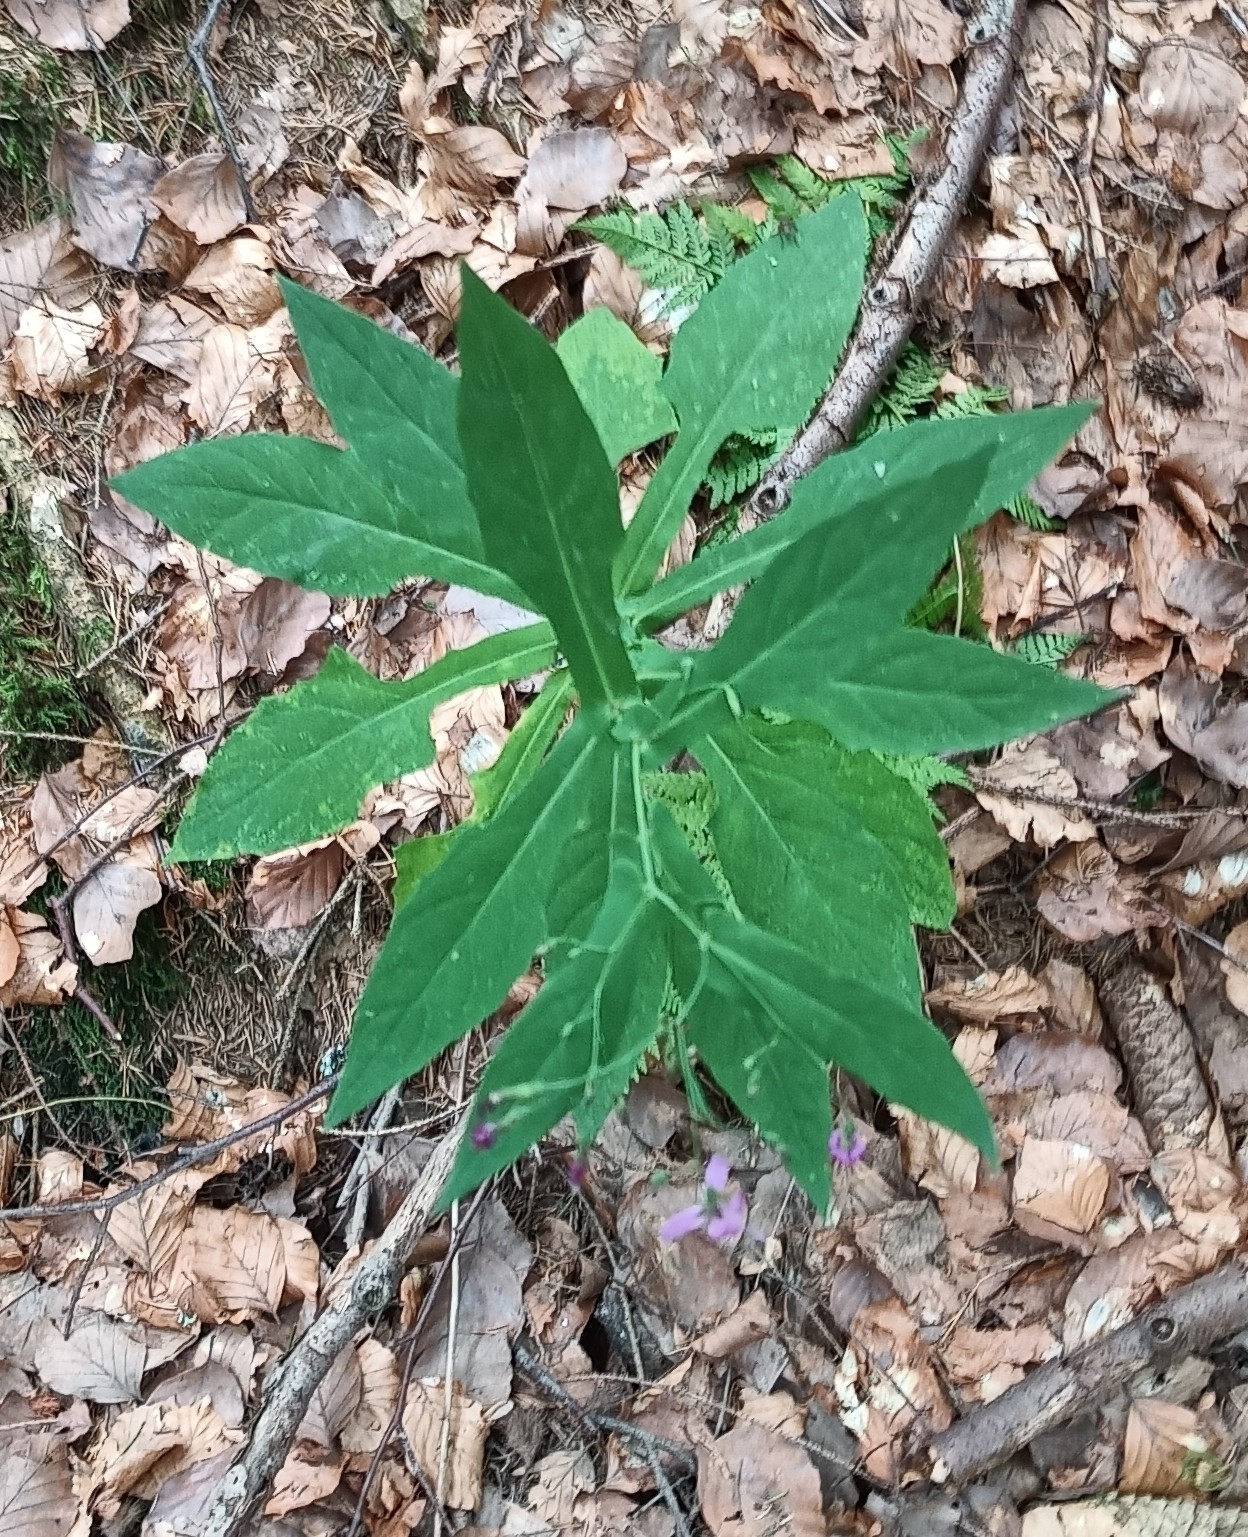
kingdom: Plantae
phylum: Tracheophyta
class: Magnoliopsida
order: Asterales
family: Asteraceae
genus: Prenanthes
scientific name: Prenanthes purpurea
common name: Purple lettuce
